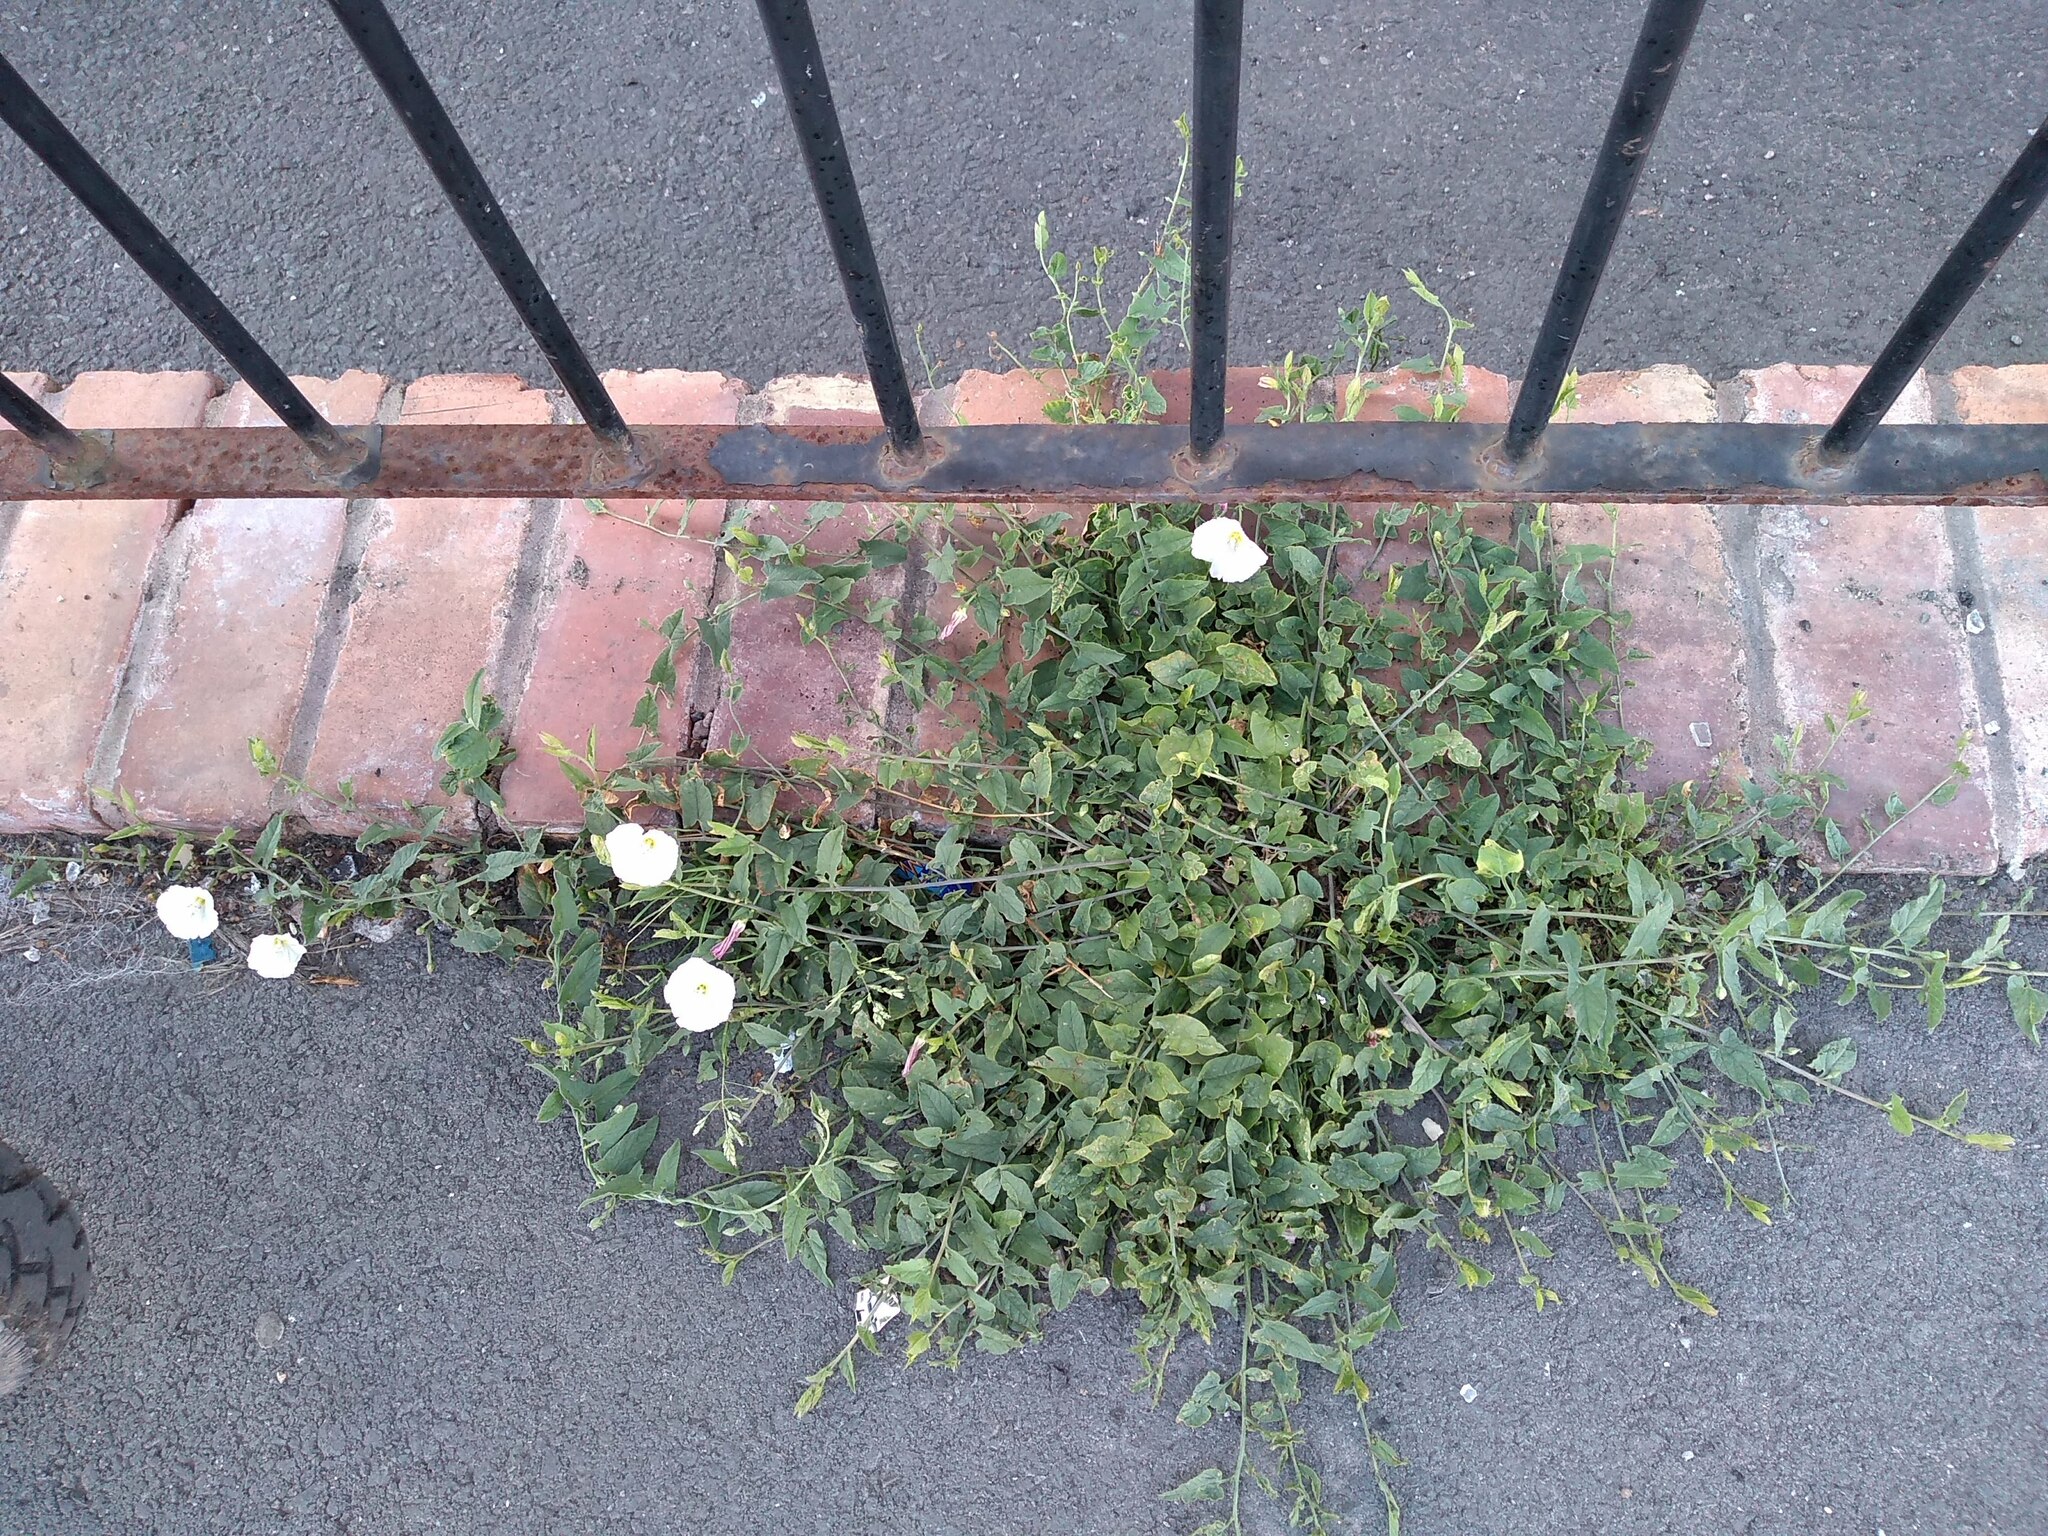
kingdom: Plantae
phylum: Tracheophyta
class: Magnoliopsida
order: Solanales
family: Convolvulaceae
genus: Convolvulus
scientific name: Convolvulus arvensis
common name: Field bindweed
